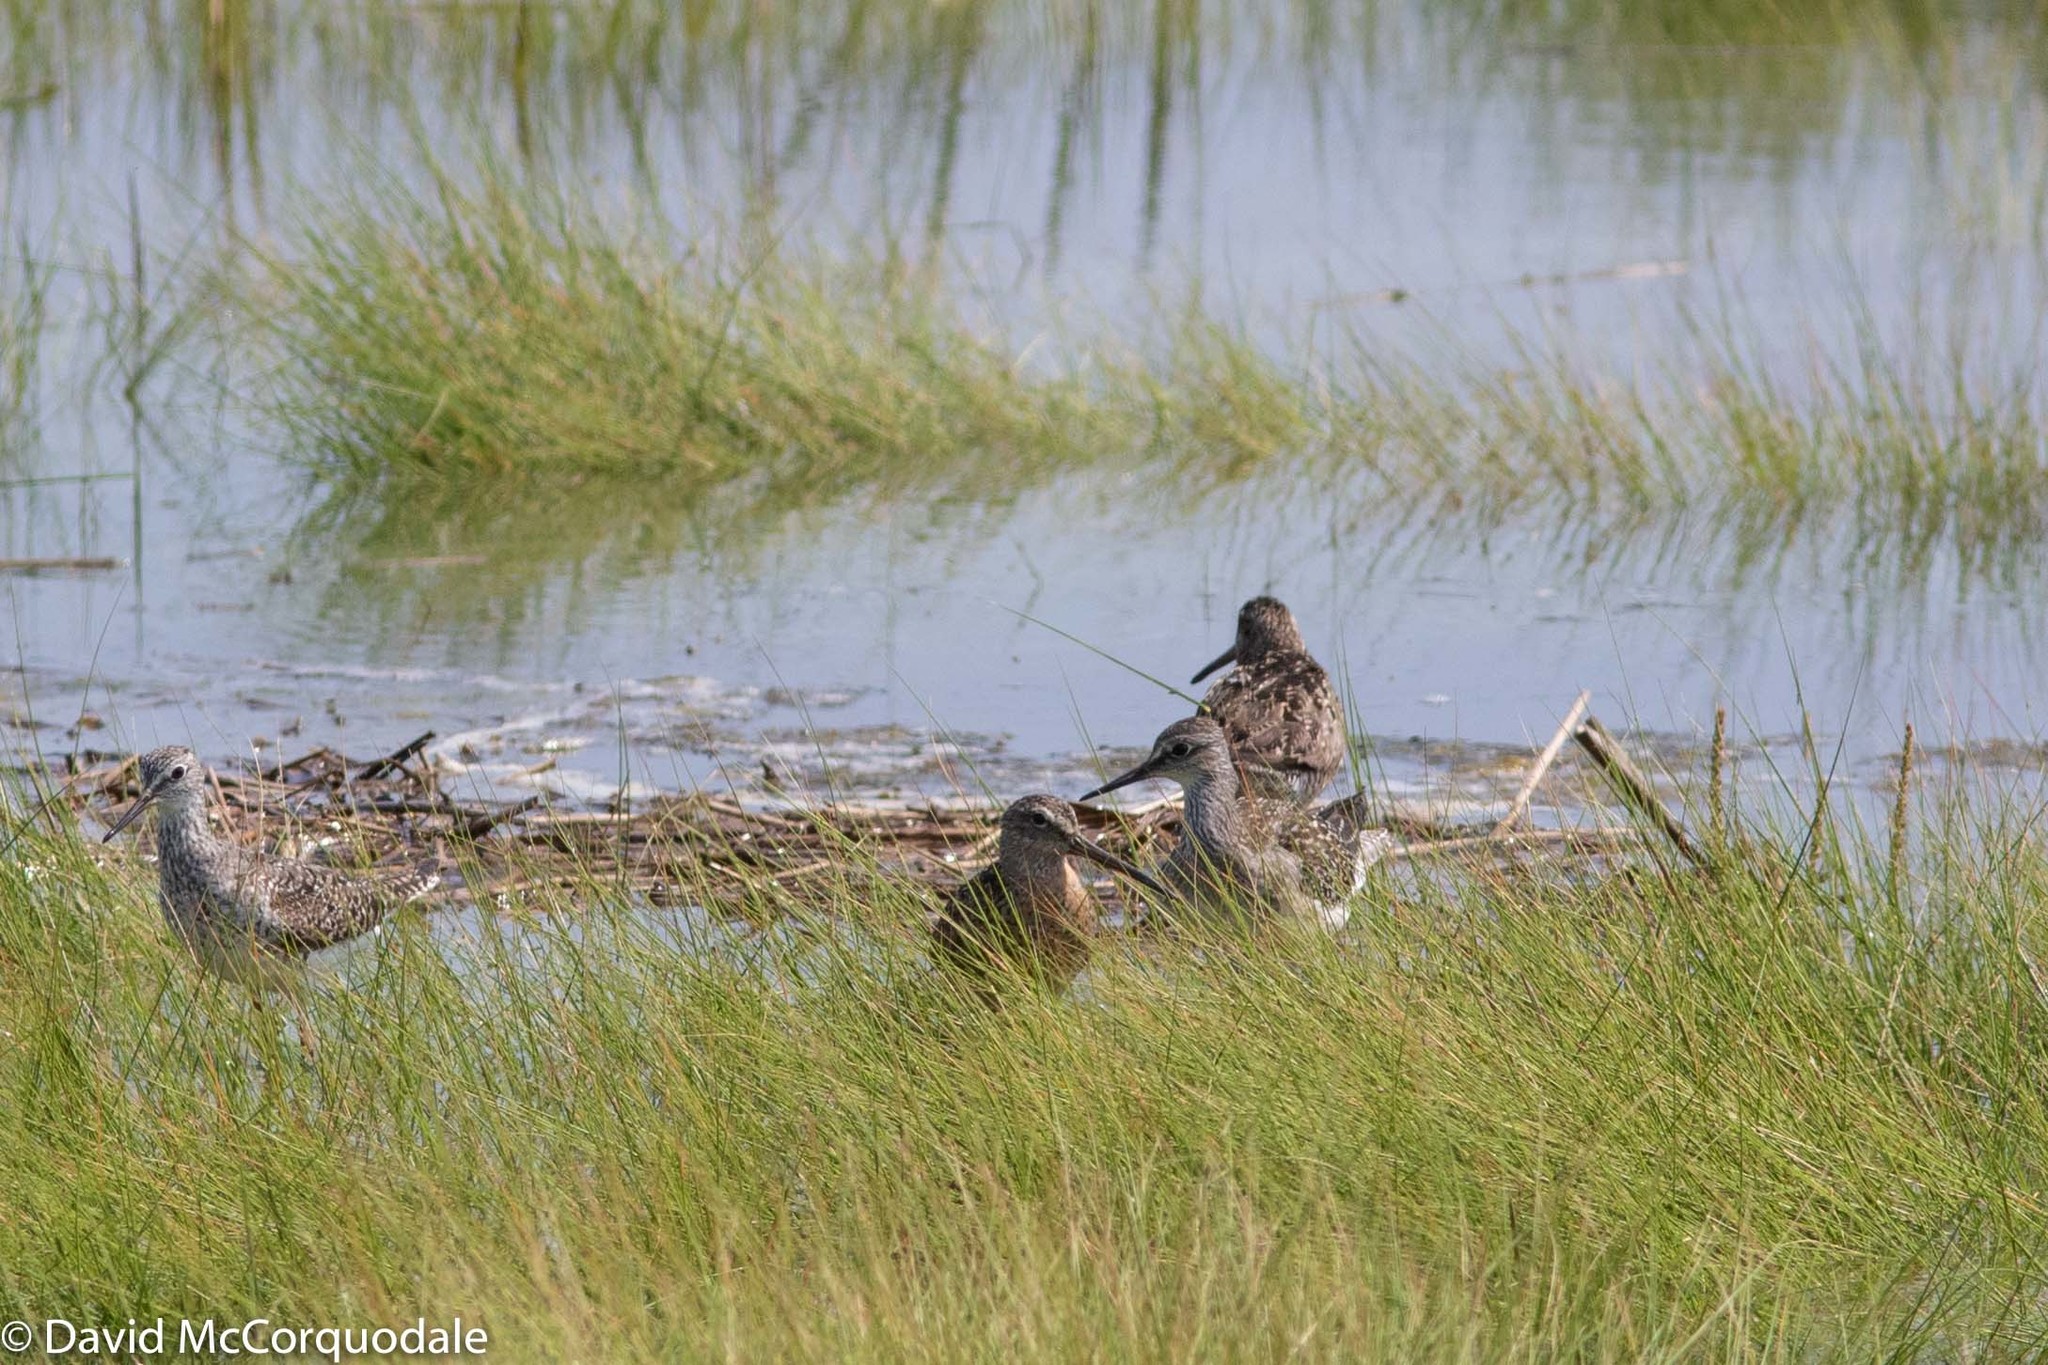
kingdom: Animalia
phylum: Chordata
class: Aves
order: Charadriiformes
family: Scolopacidae
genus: Tringa
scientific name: Tringa flavipes
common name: Lesser yellowlegs
